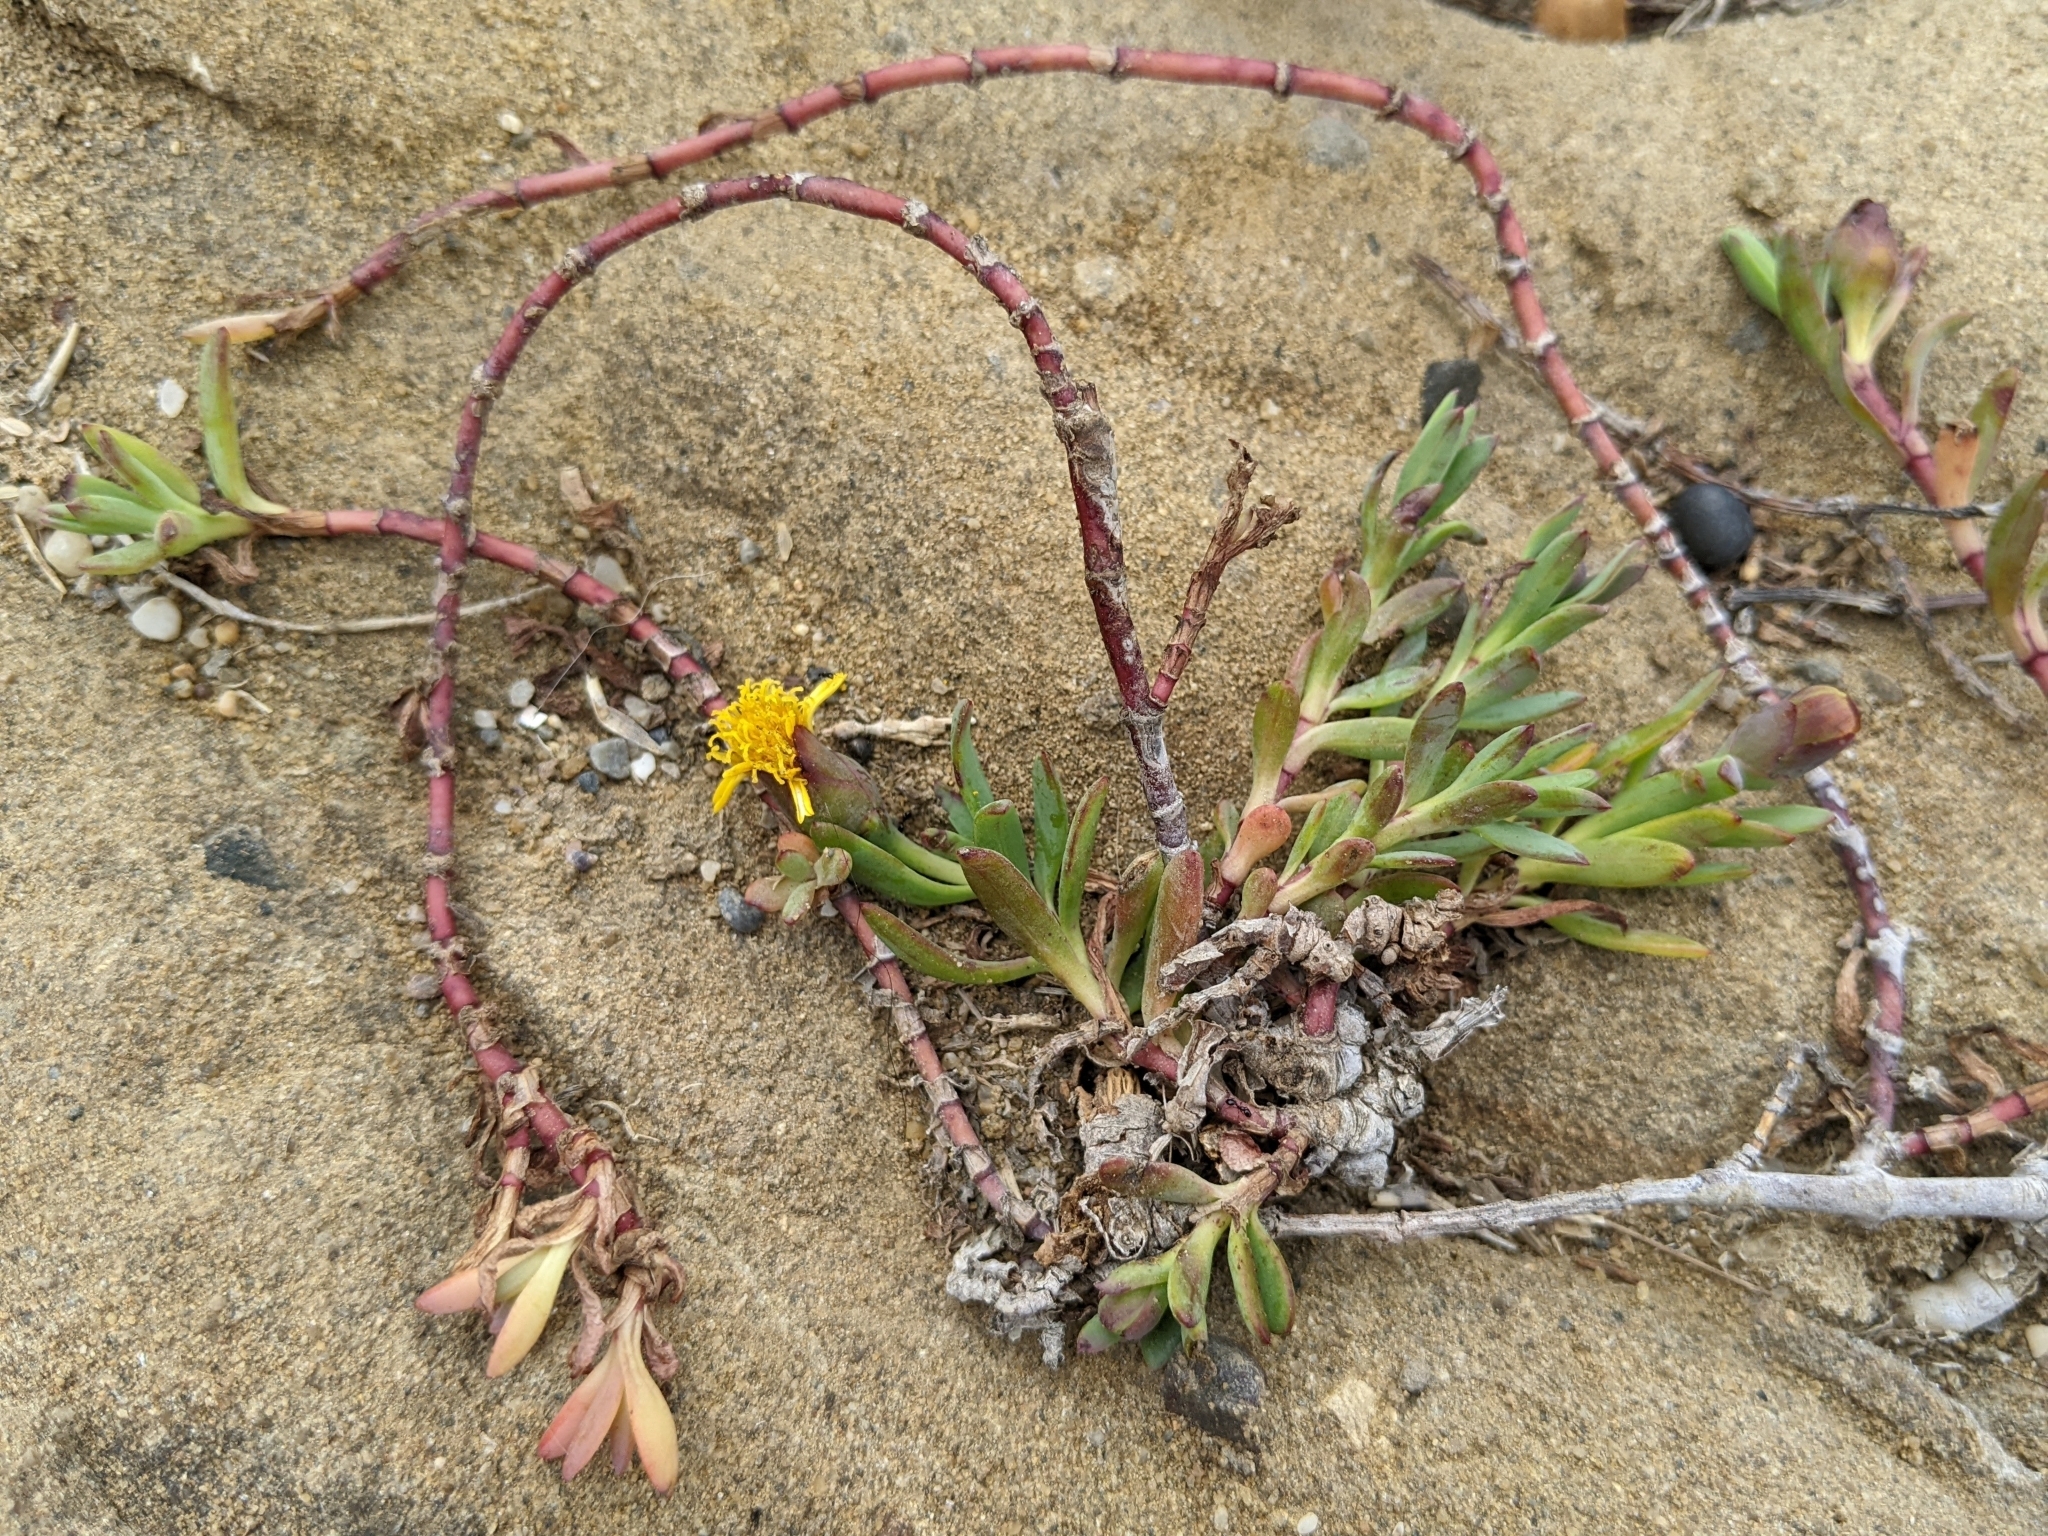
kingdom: Plantae
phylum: Tracheophyta
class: Magnoliopsida
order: Asterales
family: Asteraceae
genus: Jaumea
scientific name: Jaumea carnosa
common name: Fleshy jaumea
